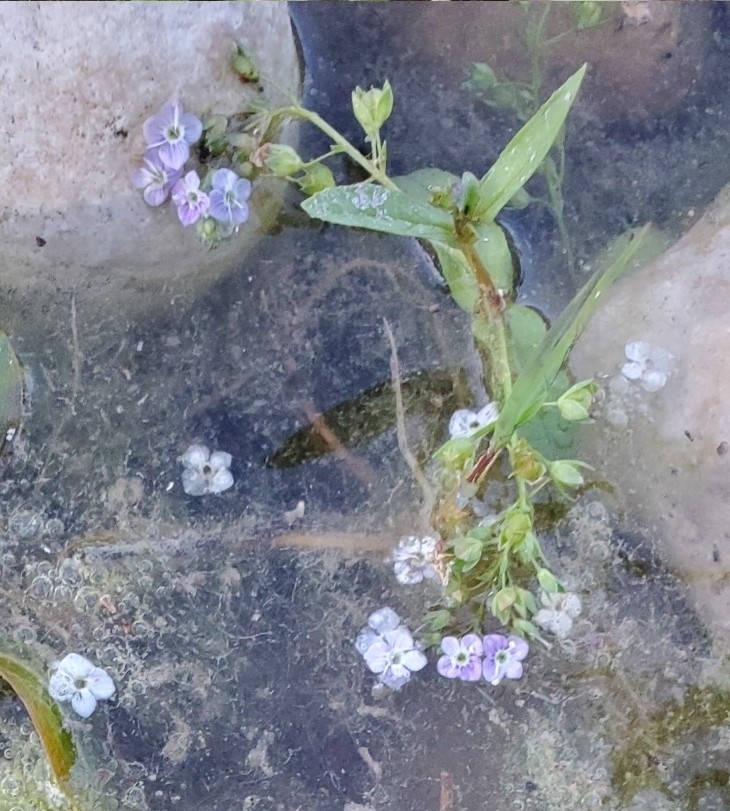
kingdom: Plantae
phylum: Tracheophyta
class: Magnoliopsida
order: Lamiales
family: Plantaginaceae
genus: Veronica
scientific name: Veronica anagallis-aquatica
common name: Water speedwell
